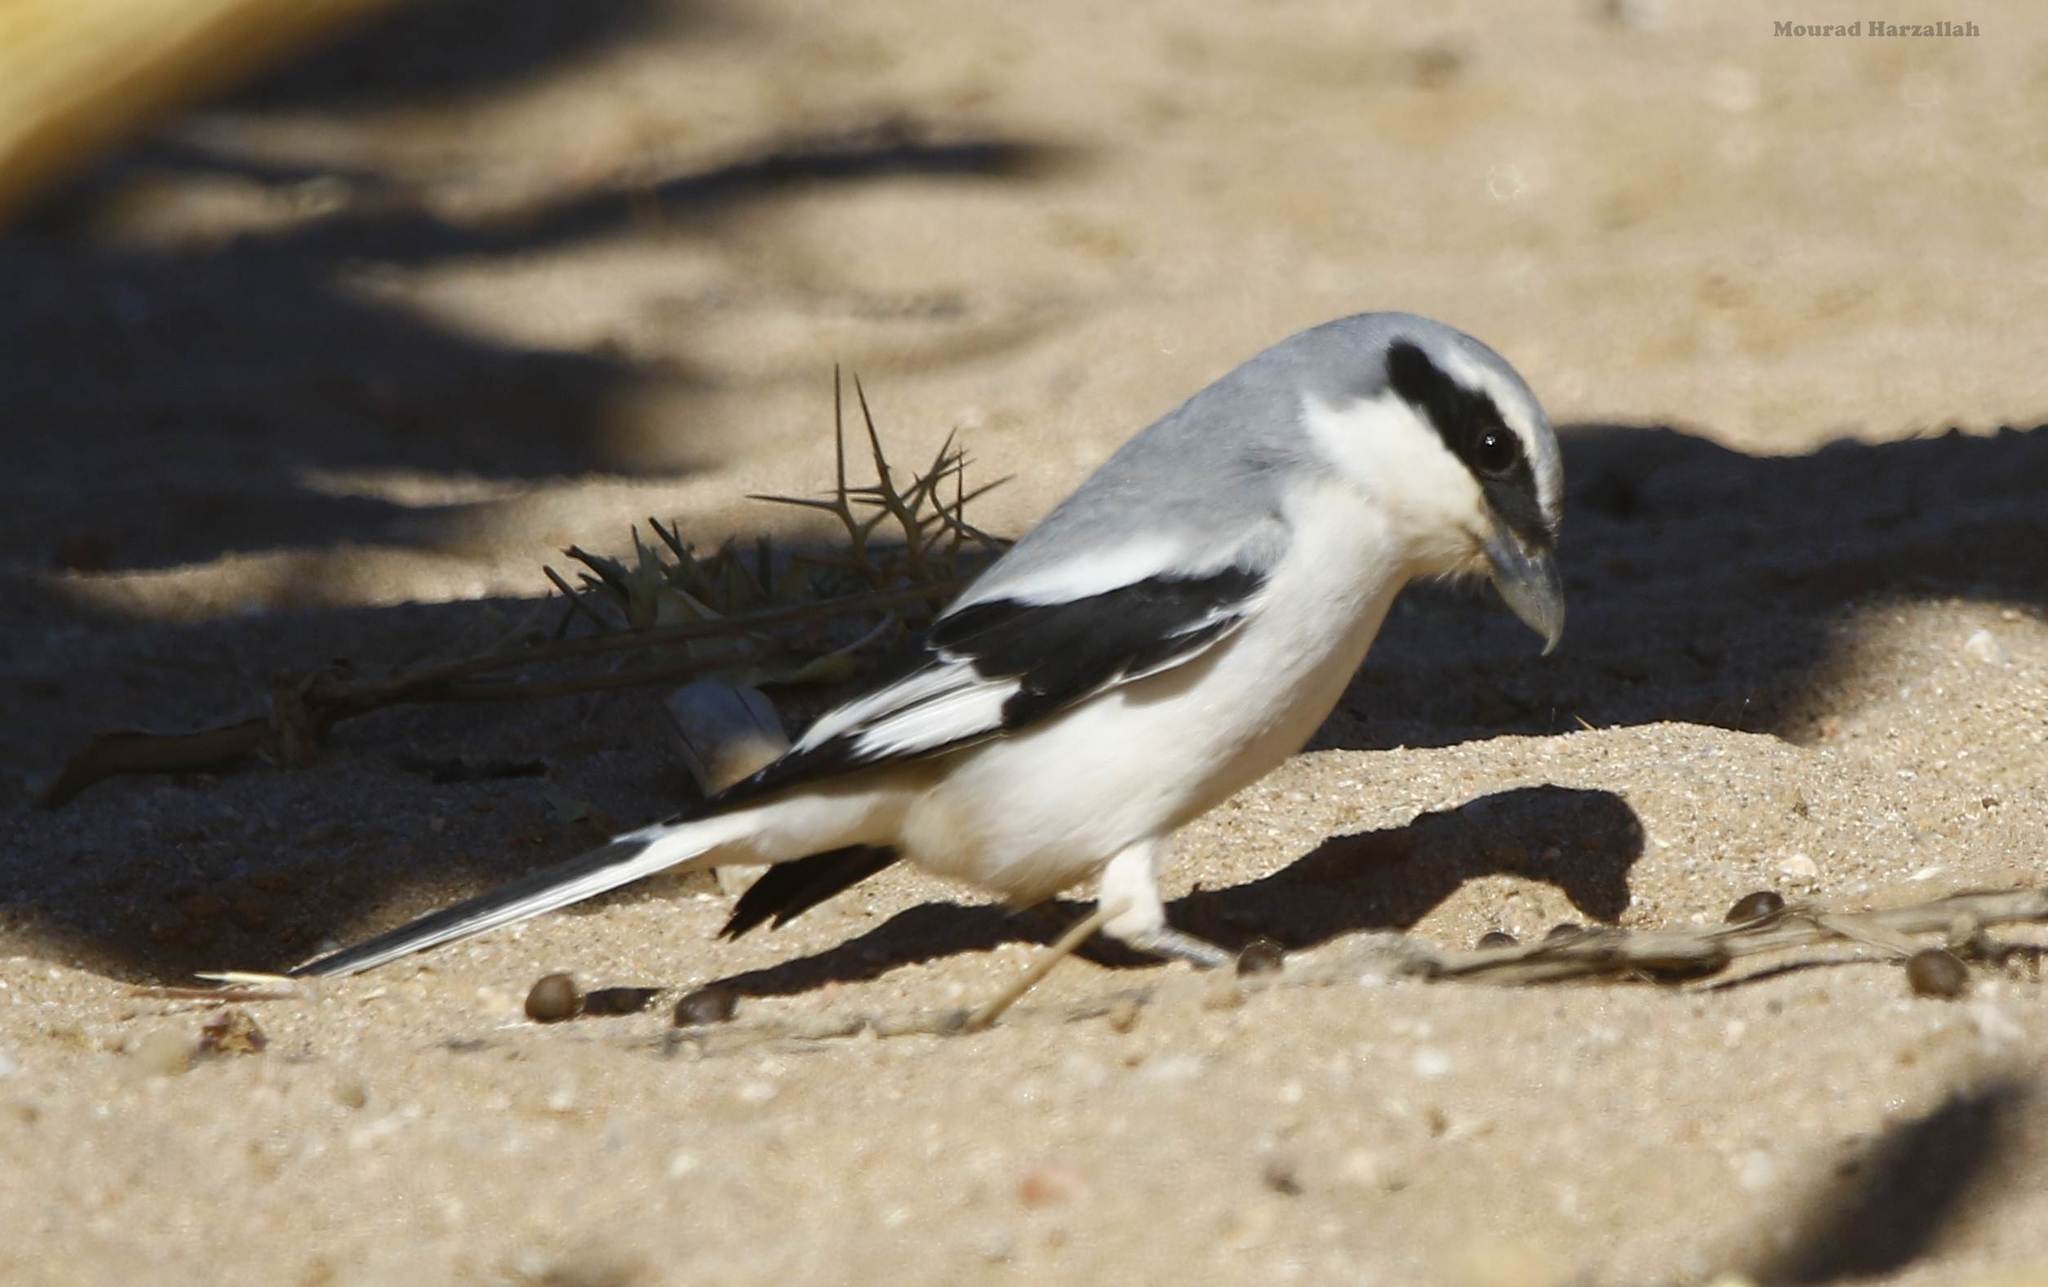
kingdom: Animalia
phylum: Chordata
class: Aves
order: Passeriformes
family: Laniidae
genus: Lanius
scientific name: Lanius excubitor
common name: Great grey shrike
